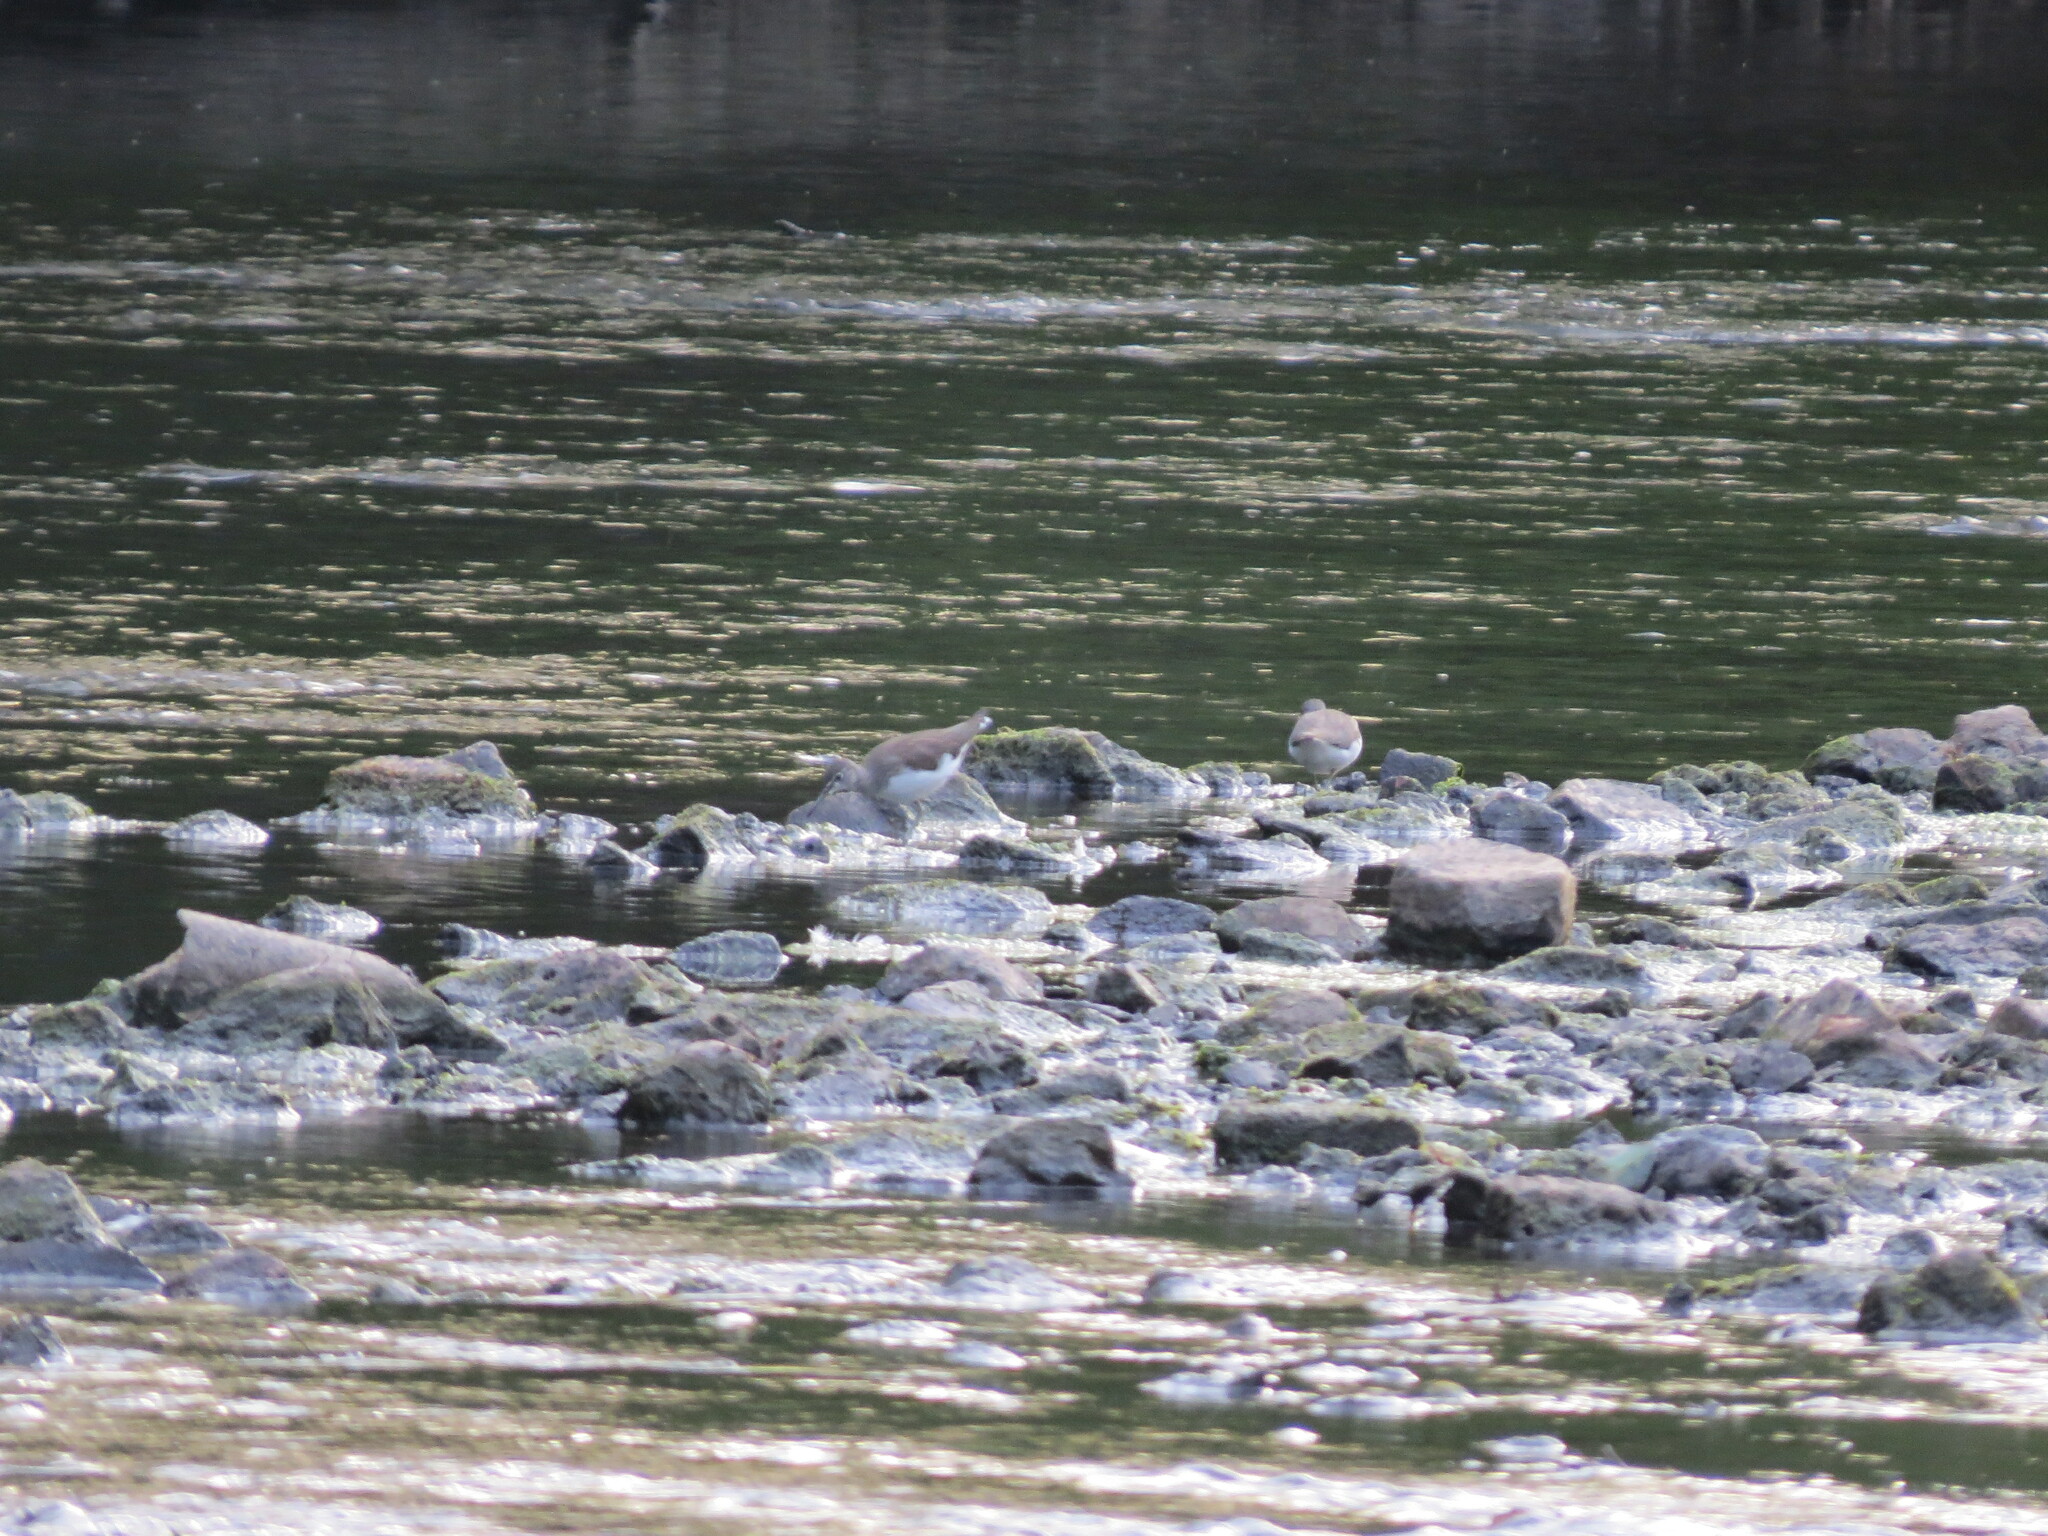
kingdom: Animalia
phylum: Chordata
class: Aves
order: Charadriiformes
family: Scolopacidae
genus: Actitis
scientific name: Actitis hypoleucos
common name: Common sandpiper
